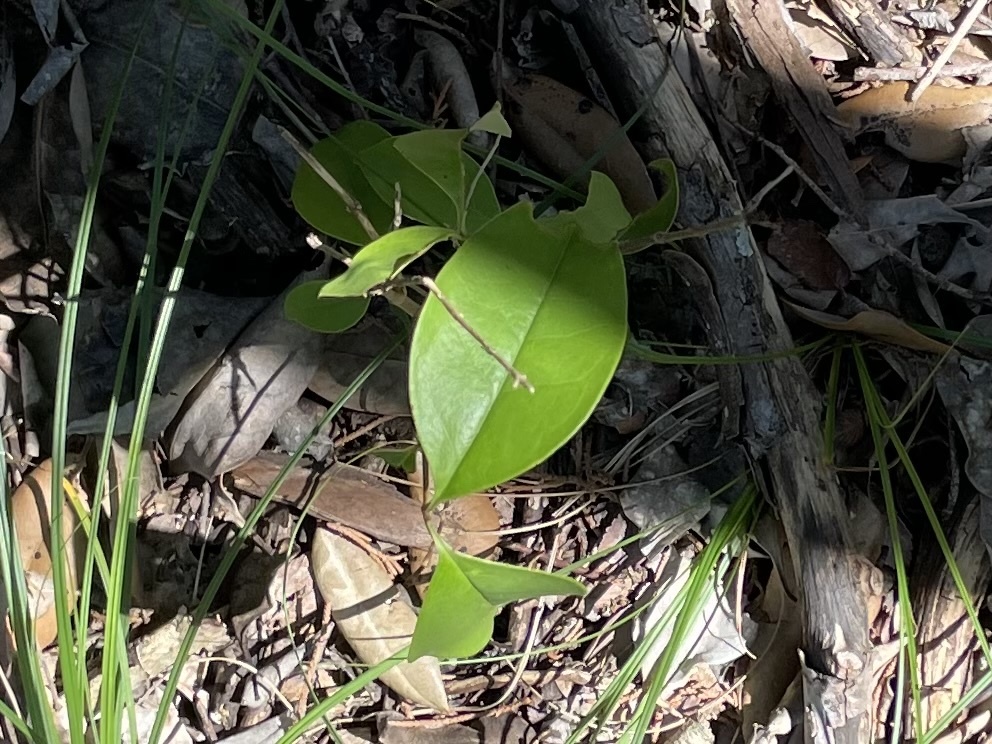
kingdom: Plantae
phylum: Tracheophyta
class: Magnoliopsida
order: Lamiales
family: Oleaceae
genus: Ligustrum
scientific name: Ligustrum lucidum
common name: Glossy privet
